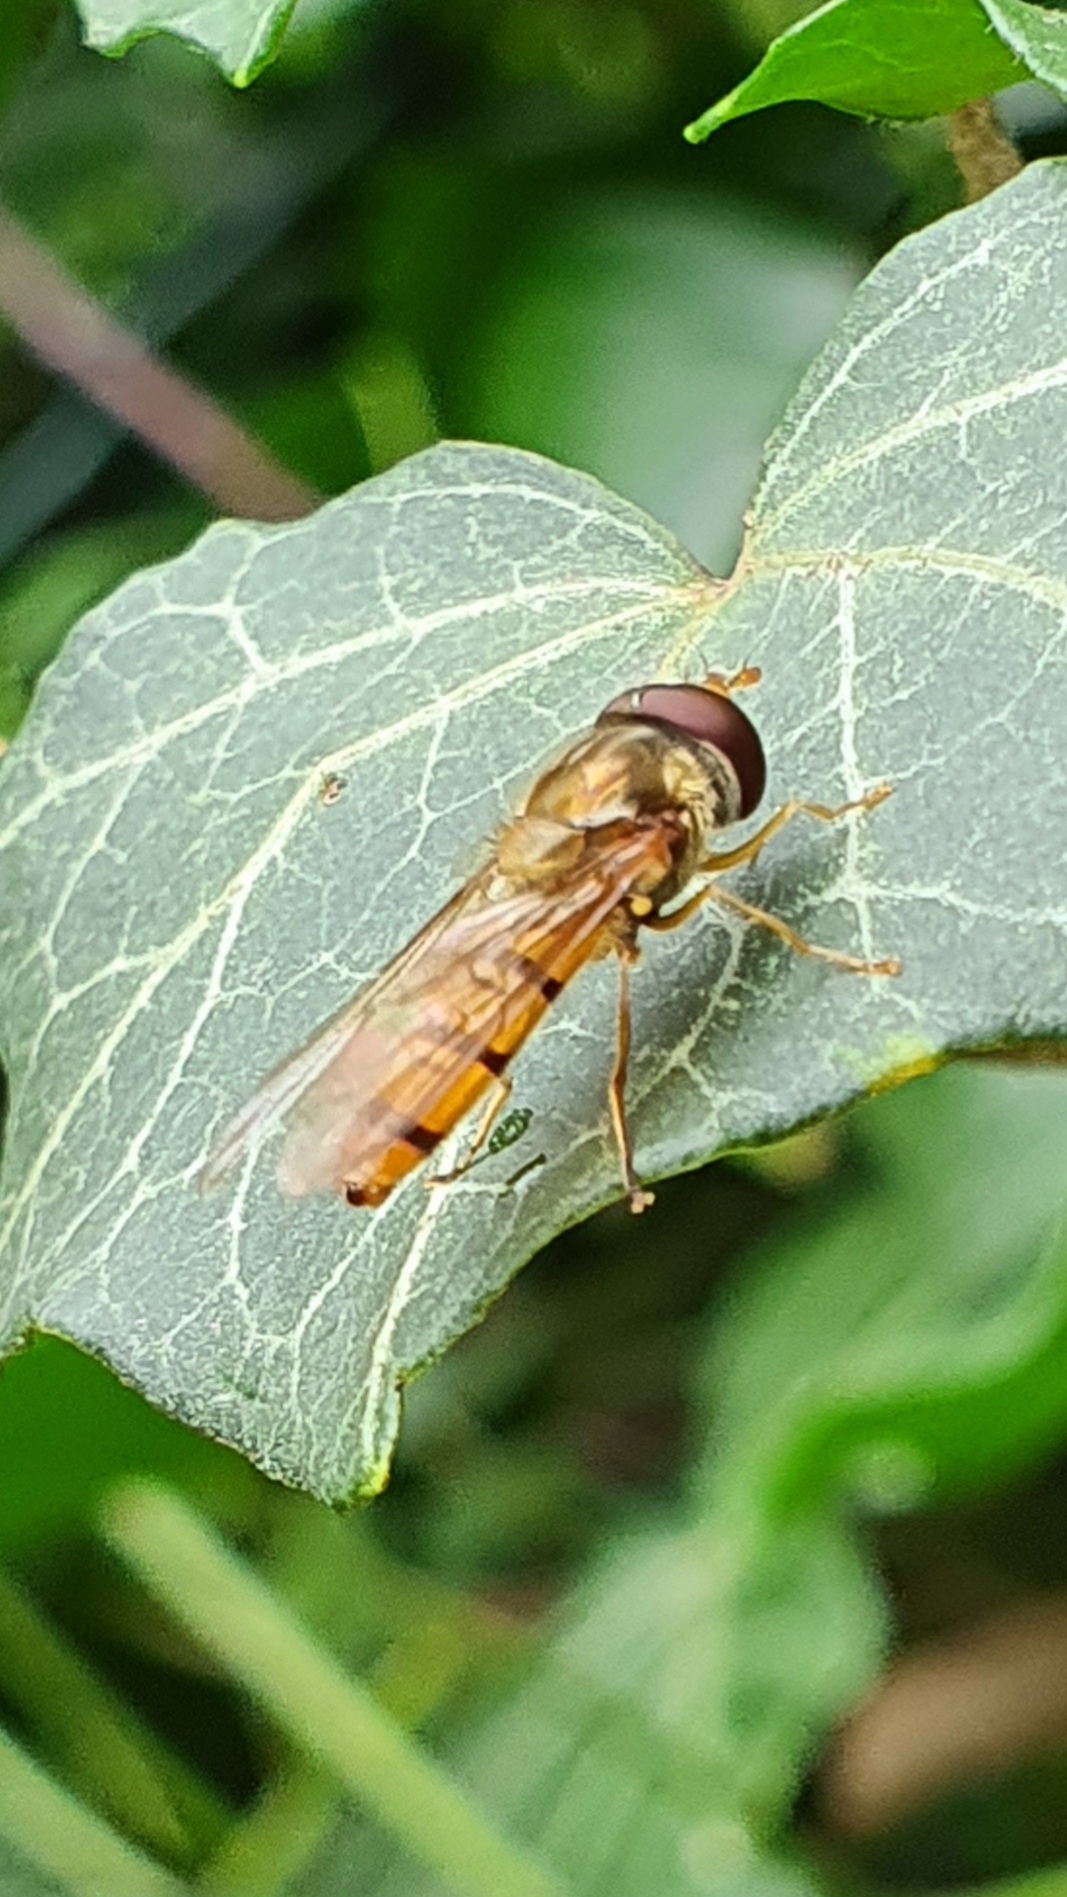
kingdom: Animalia
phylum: Arthropoda
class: Insecta
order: Diptera
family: Syrphidae
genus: Episyrphus
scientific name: Episyrphus balteatus
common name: Marmalade hoverfly
